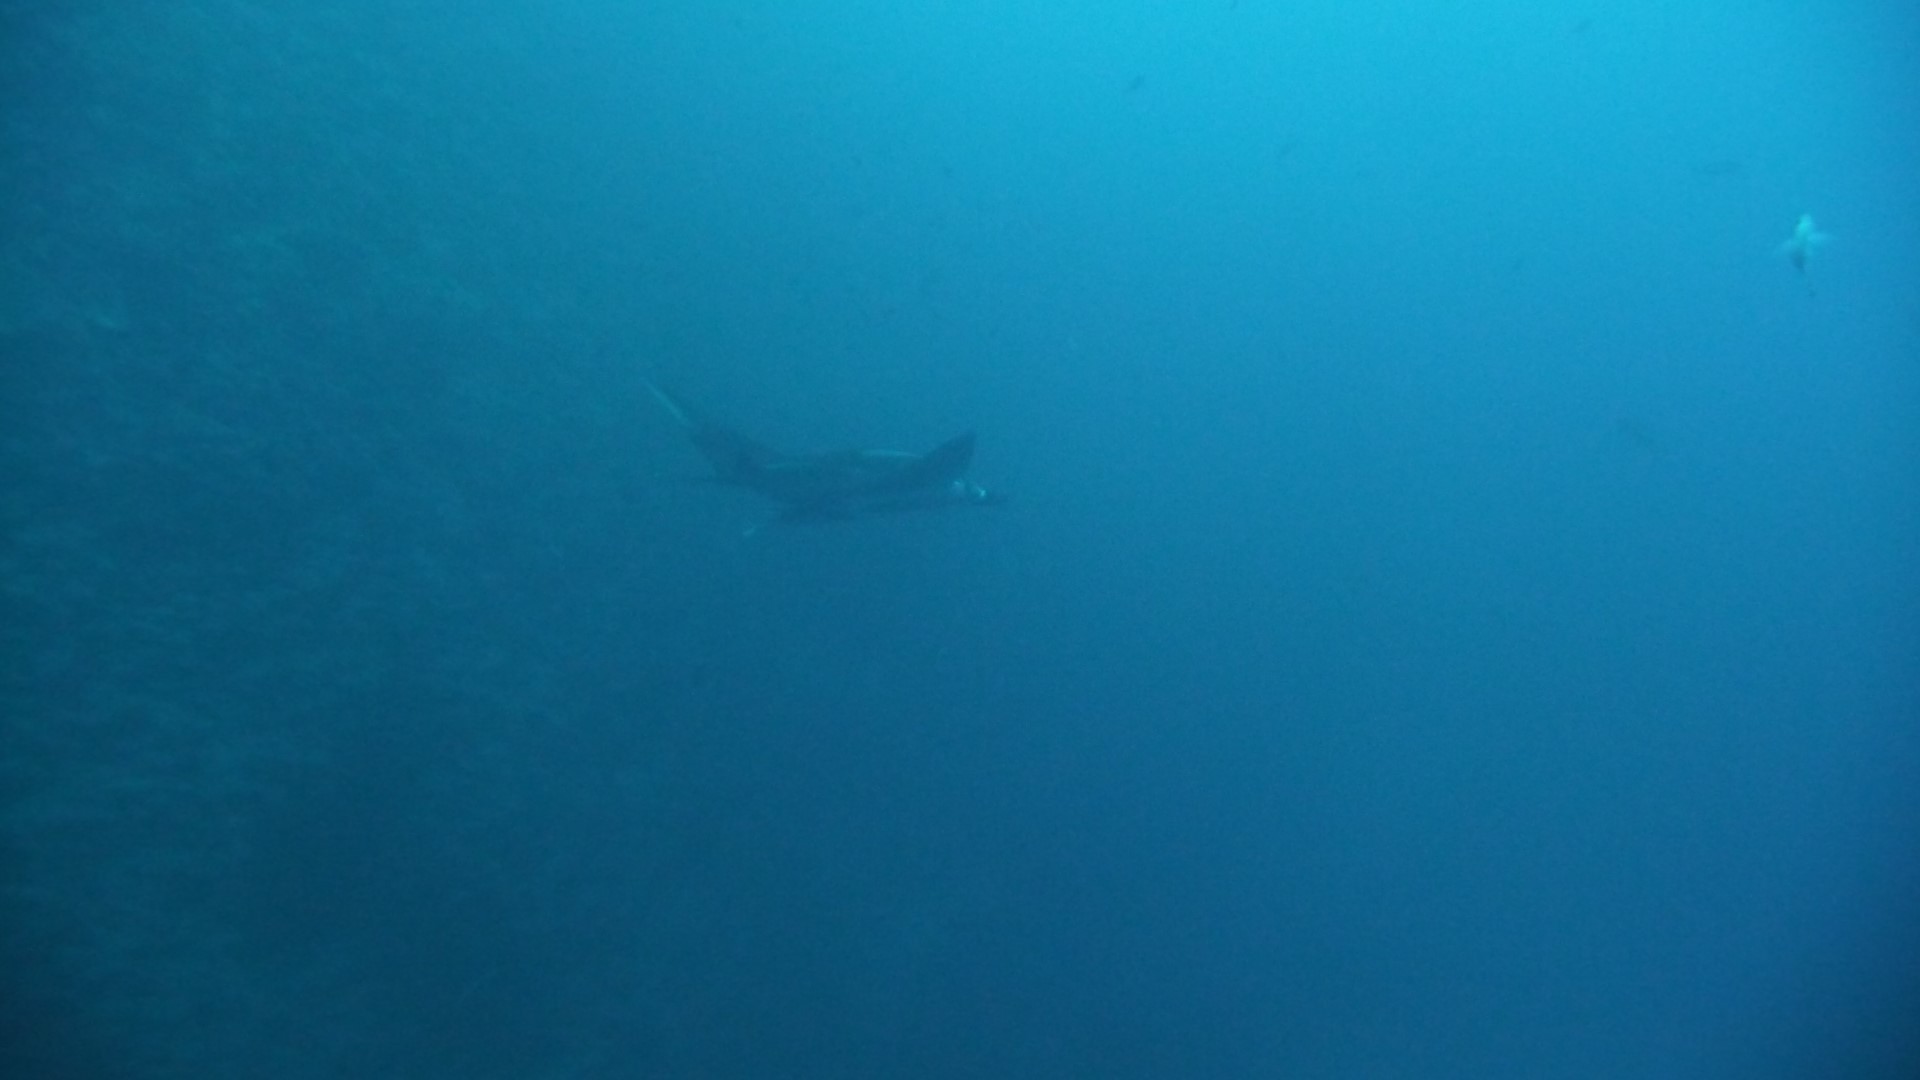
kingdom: Animalia
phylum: Chordata
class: Elasmobranchii
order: Myliobatiformes
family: Myliobatidae
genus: Mobula
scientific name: Mobula birostris
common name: Manta ray
